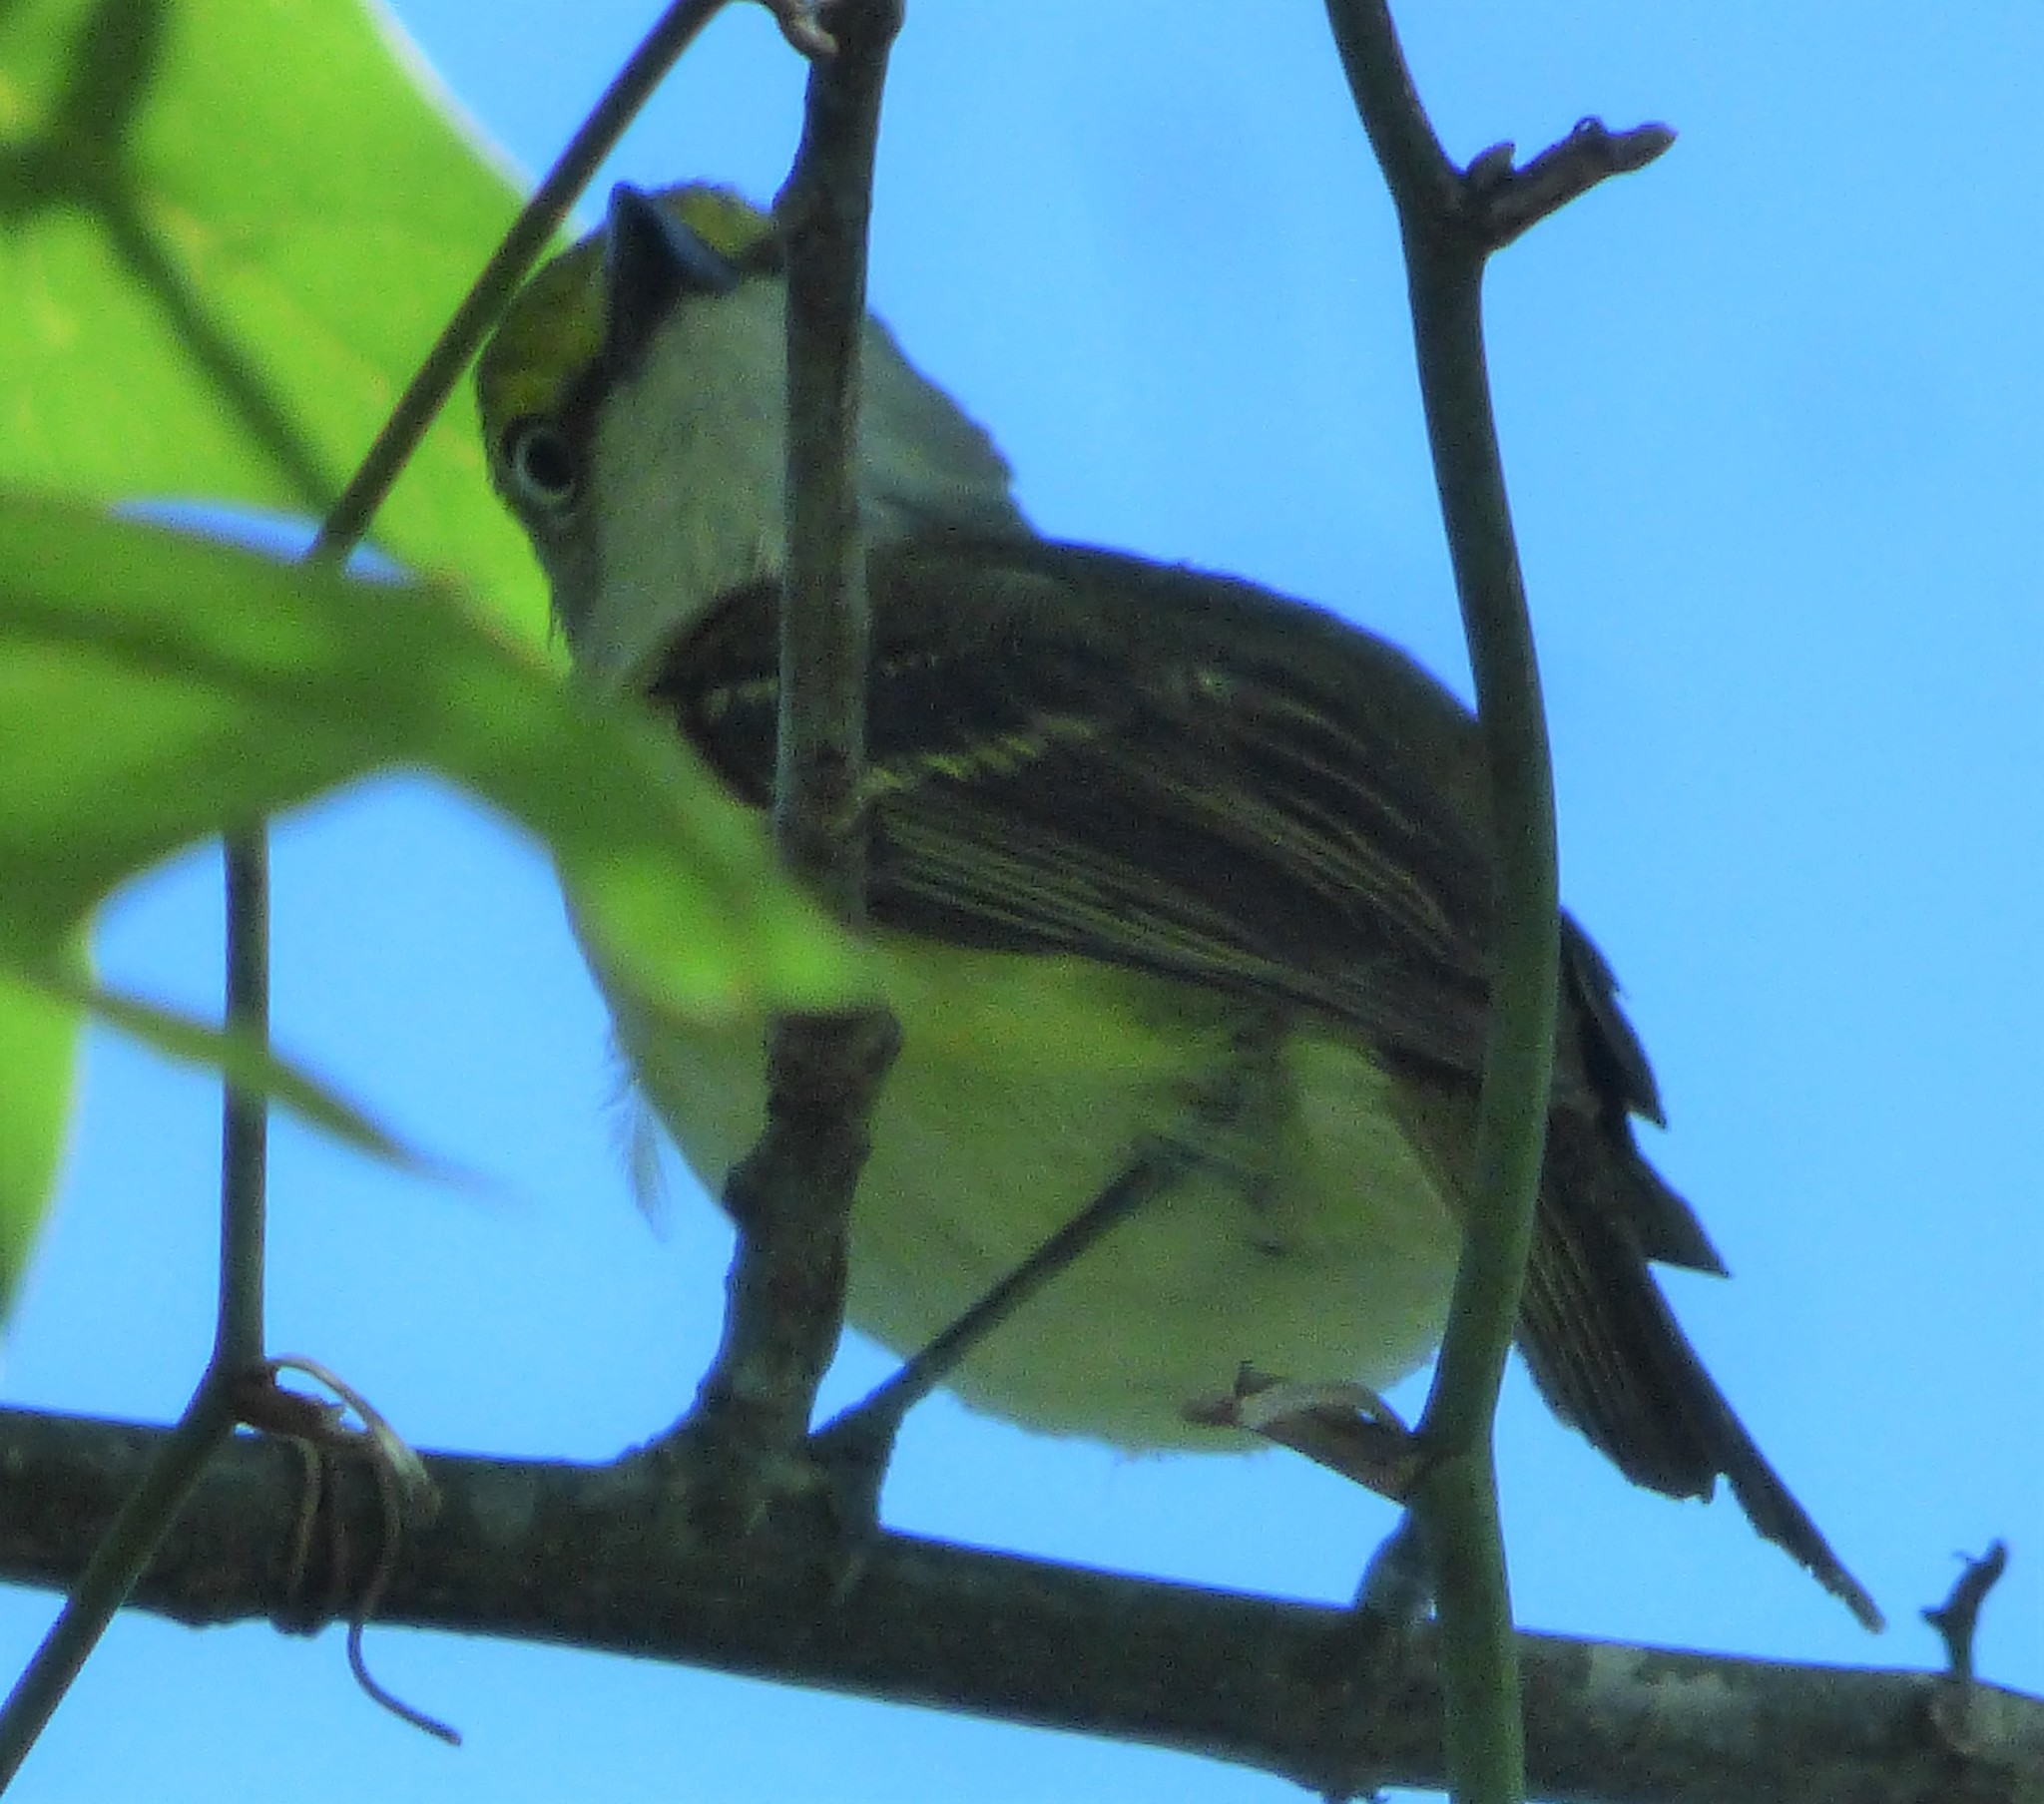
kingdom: Animalia
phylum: Chordata
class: Aves
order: Passeriformes
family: Vireonidae
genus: Vireo
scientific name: Vireo griseus
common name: White-eyed vireo
